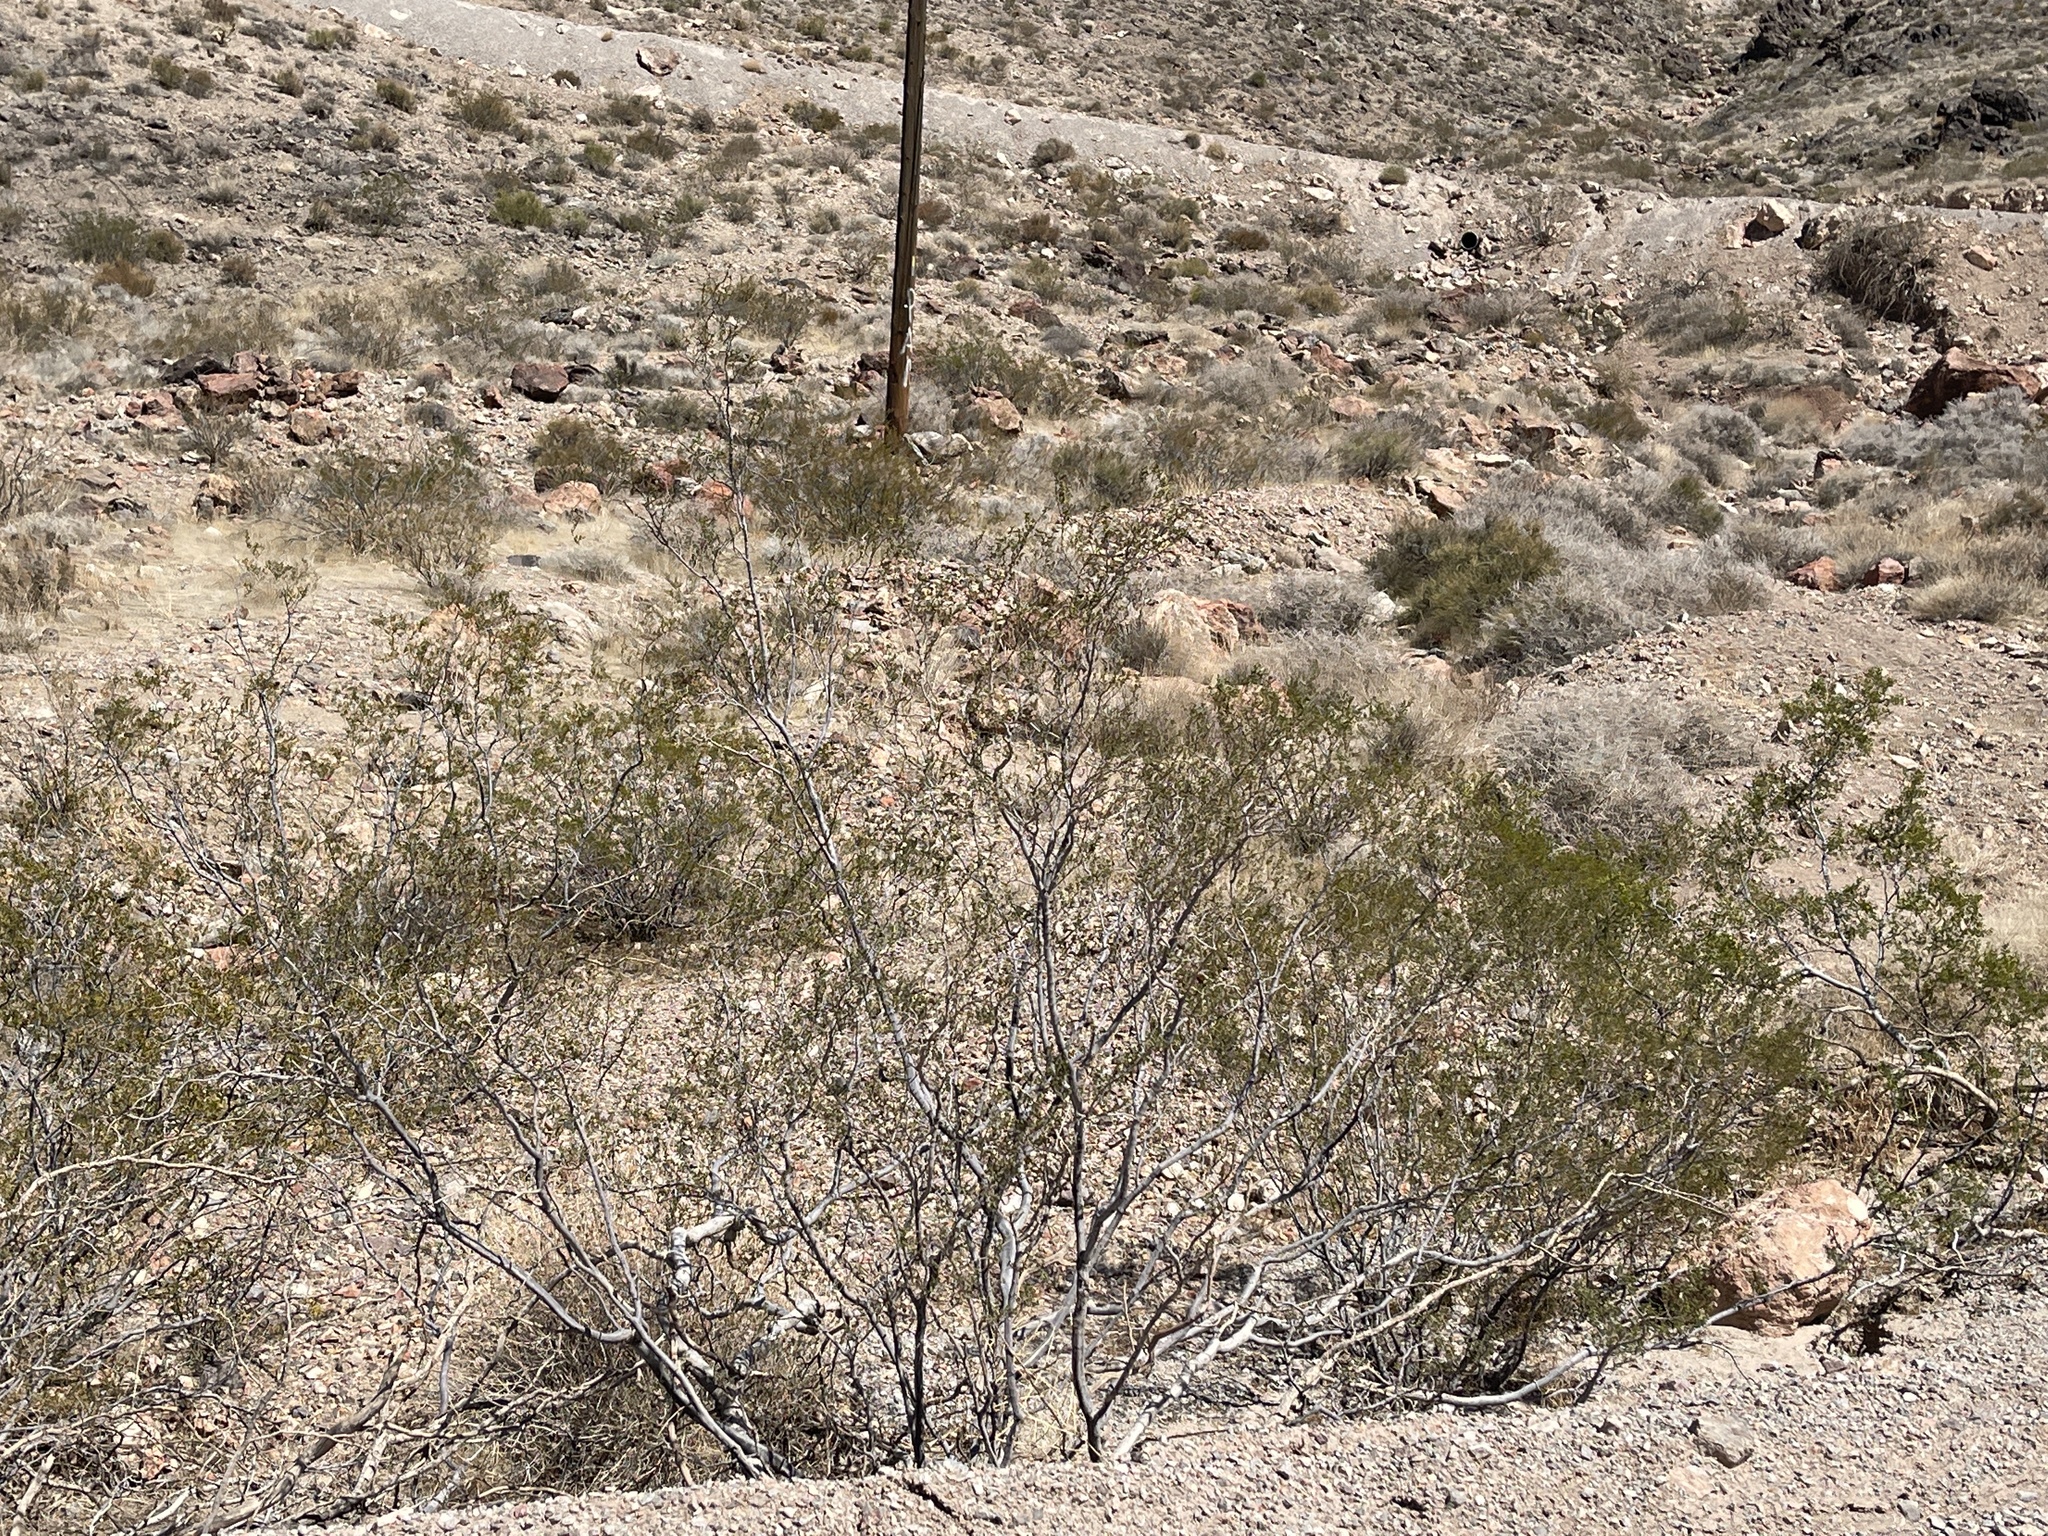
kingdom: Plantae
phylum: Tracheophyta
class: Magnoliopsida
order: Zygophyllales
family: Zygophyllaceae
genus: Larrea
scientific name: Larrea tridentata
